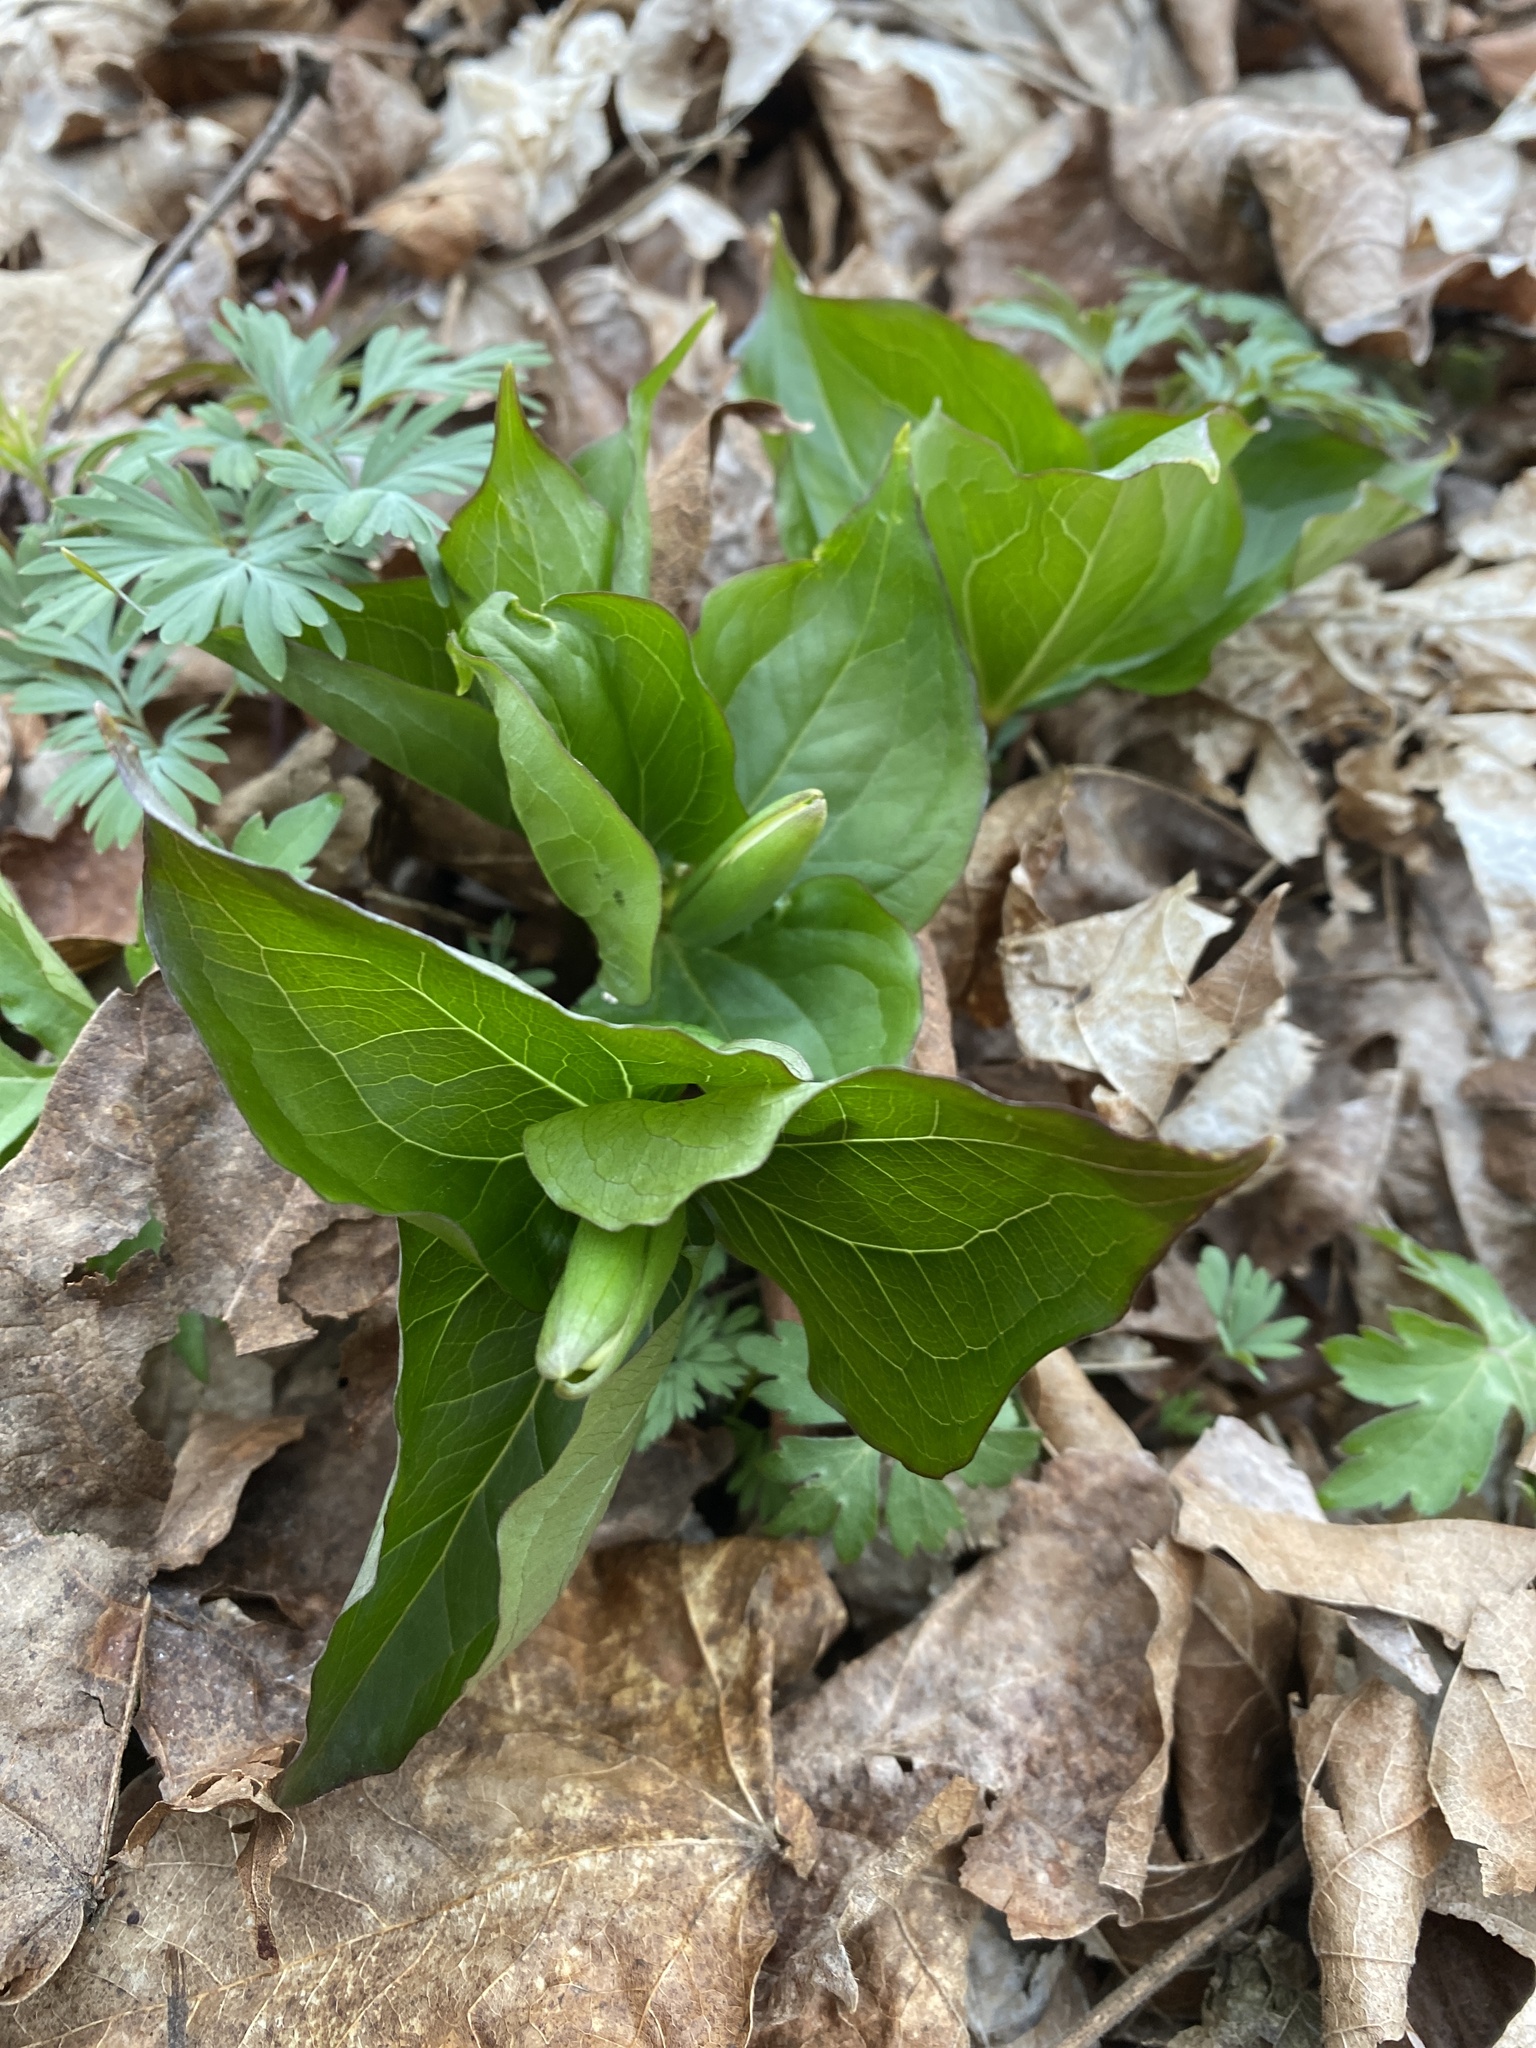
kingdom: Plantae
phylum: Tracheophyta
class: Liliopsida
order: Liliales
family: Melanthiaceae
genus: Trillium
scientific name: Trillium grandiflorum
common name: Great white trillium
